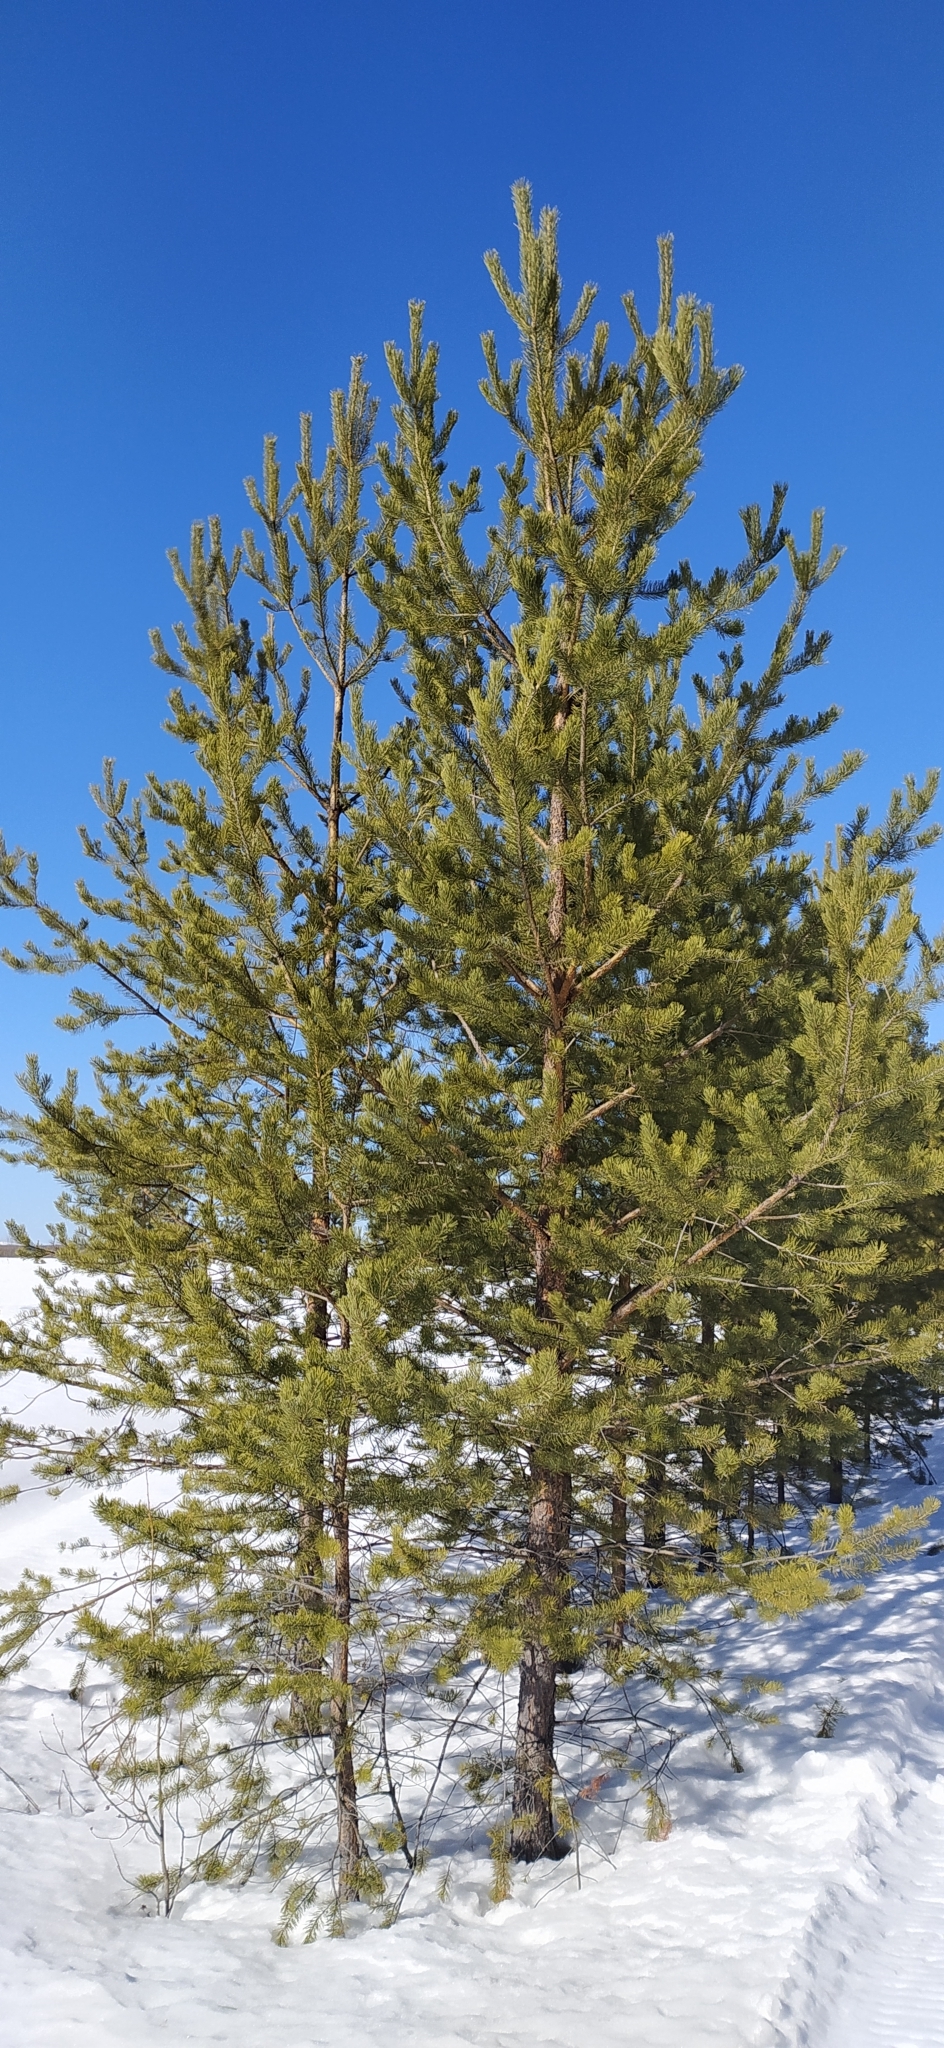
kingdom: Plantae
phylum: Tracheophyta
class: Pinopsida
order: Pinales
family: Pinaceae
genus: Pinus
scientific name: Pinus sylvestris
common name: Scots pine
